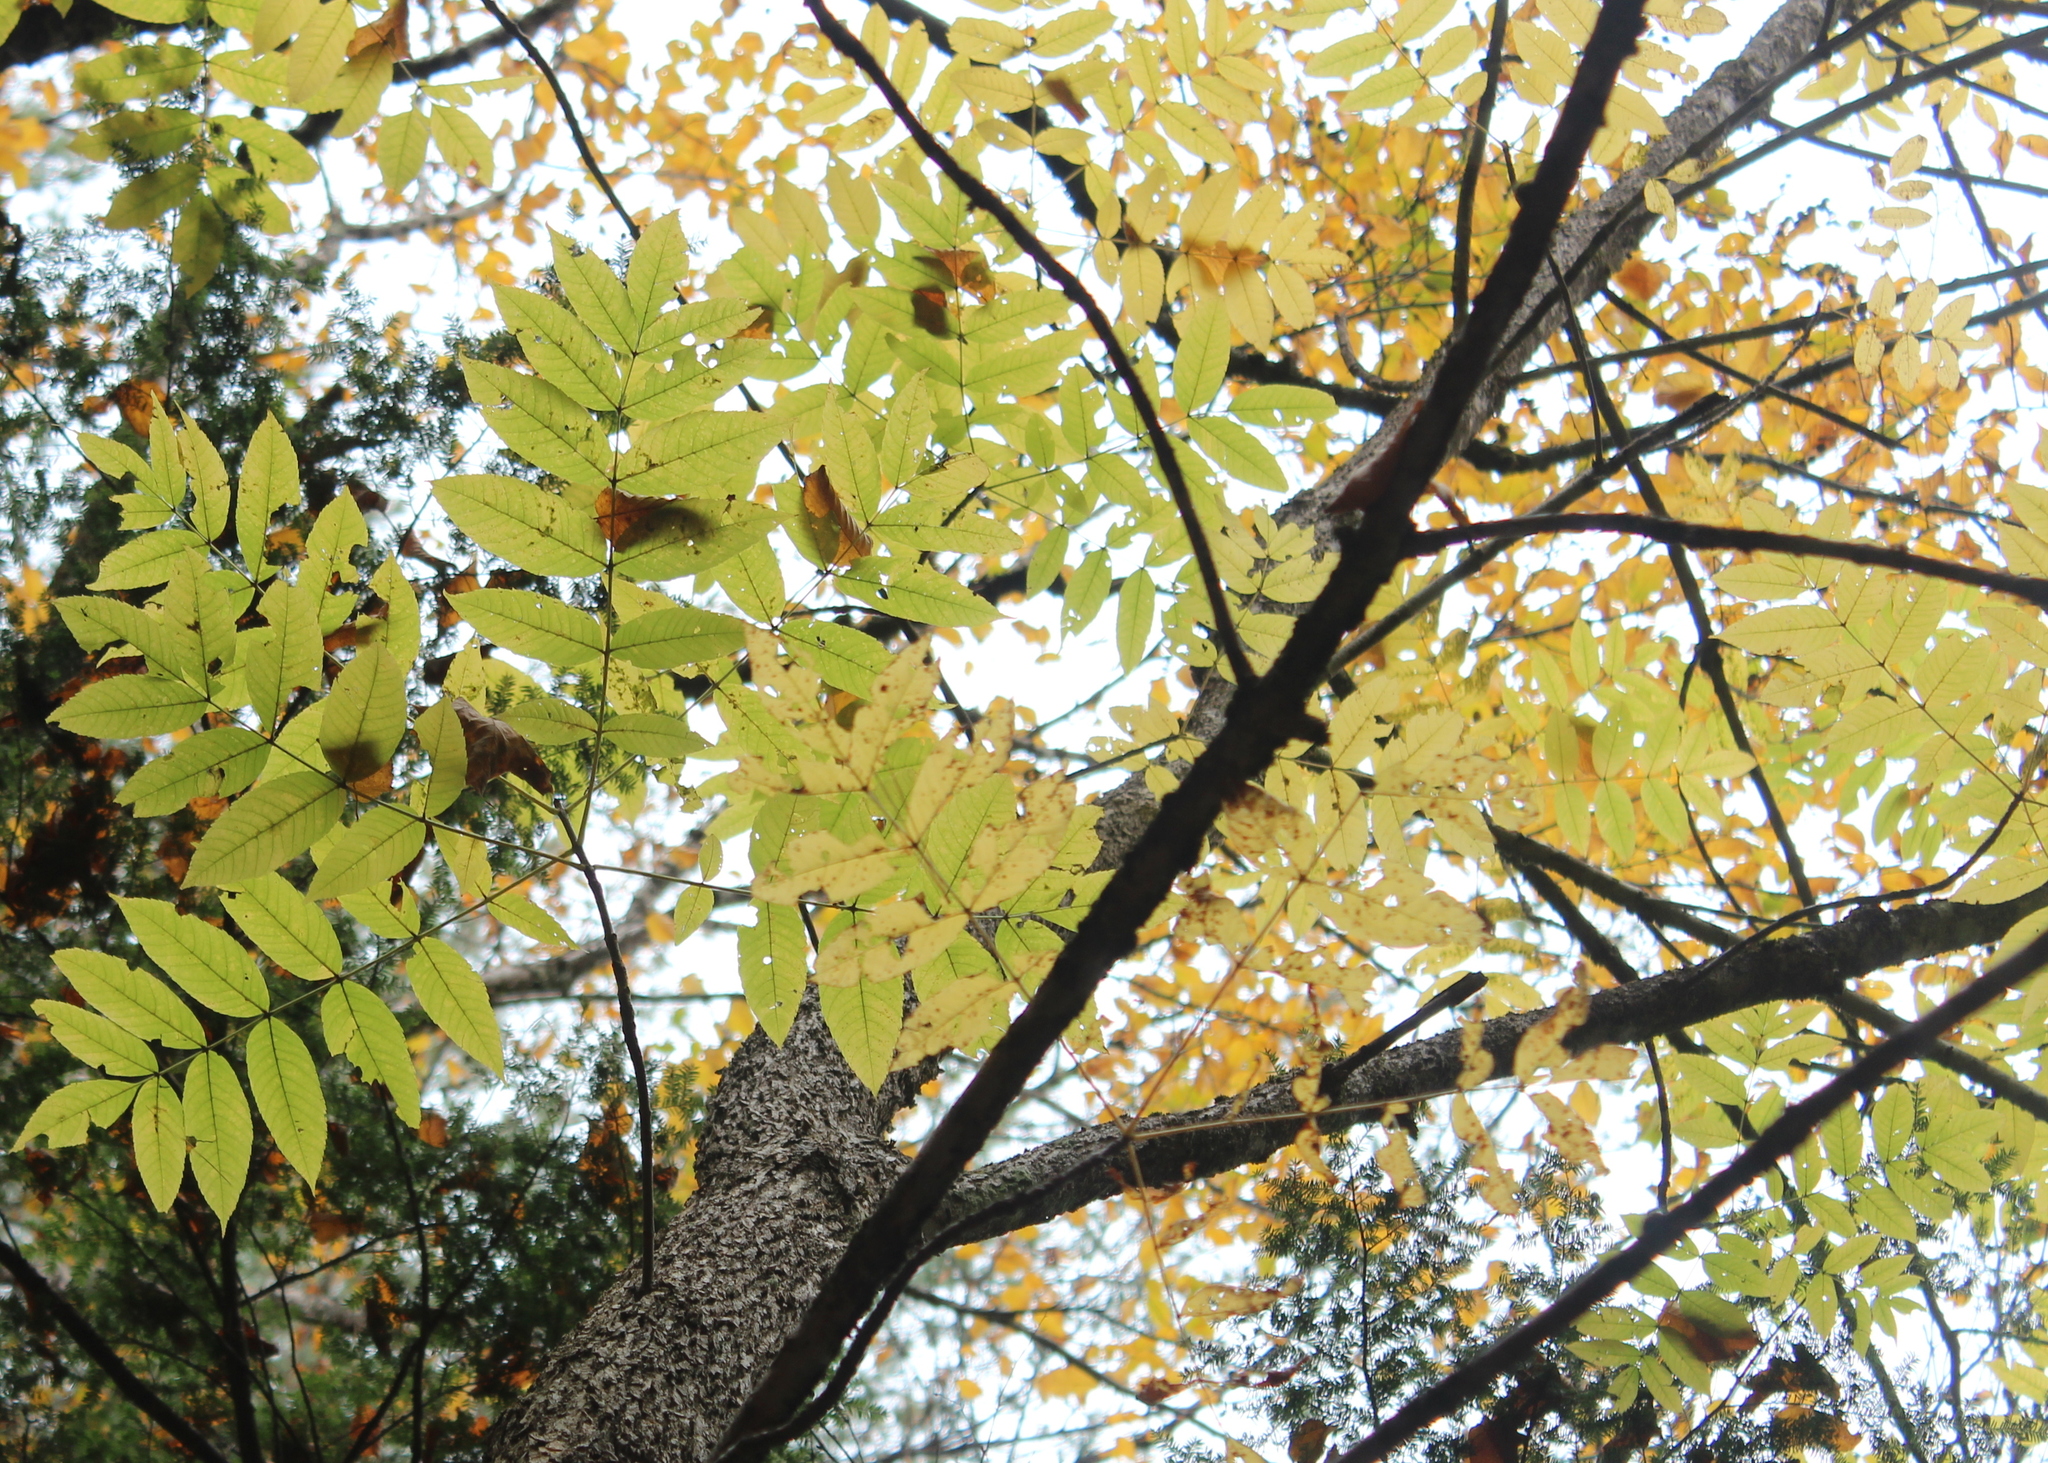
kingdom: Plantae
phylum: Tracheophyta
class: Magnoliopsida
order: Lamiales
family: Oleaceae
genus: Fraxinus
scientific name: Fraxinus nigra
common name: Black ash
